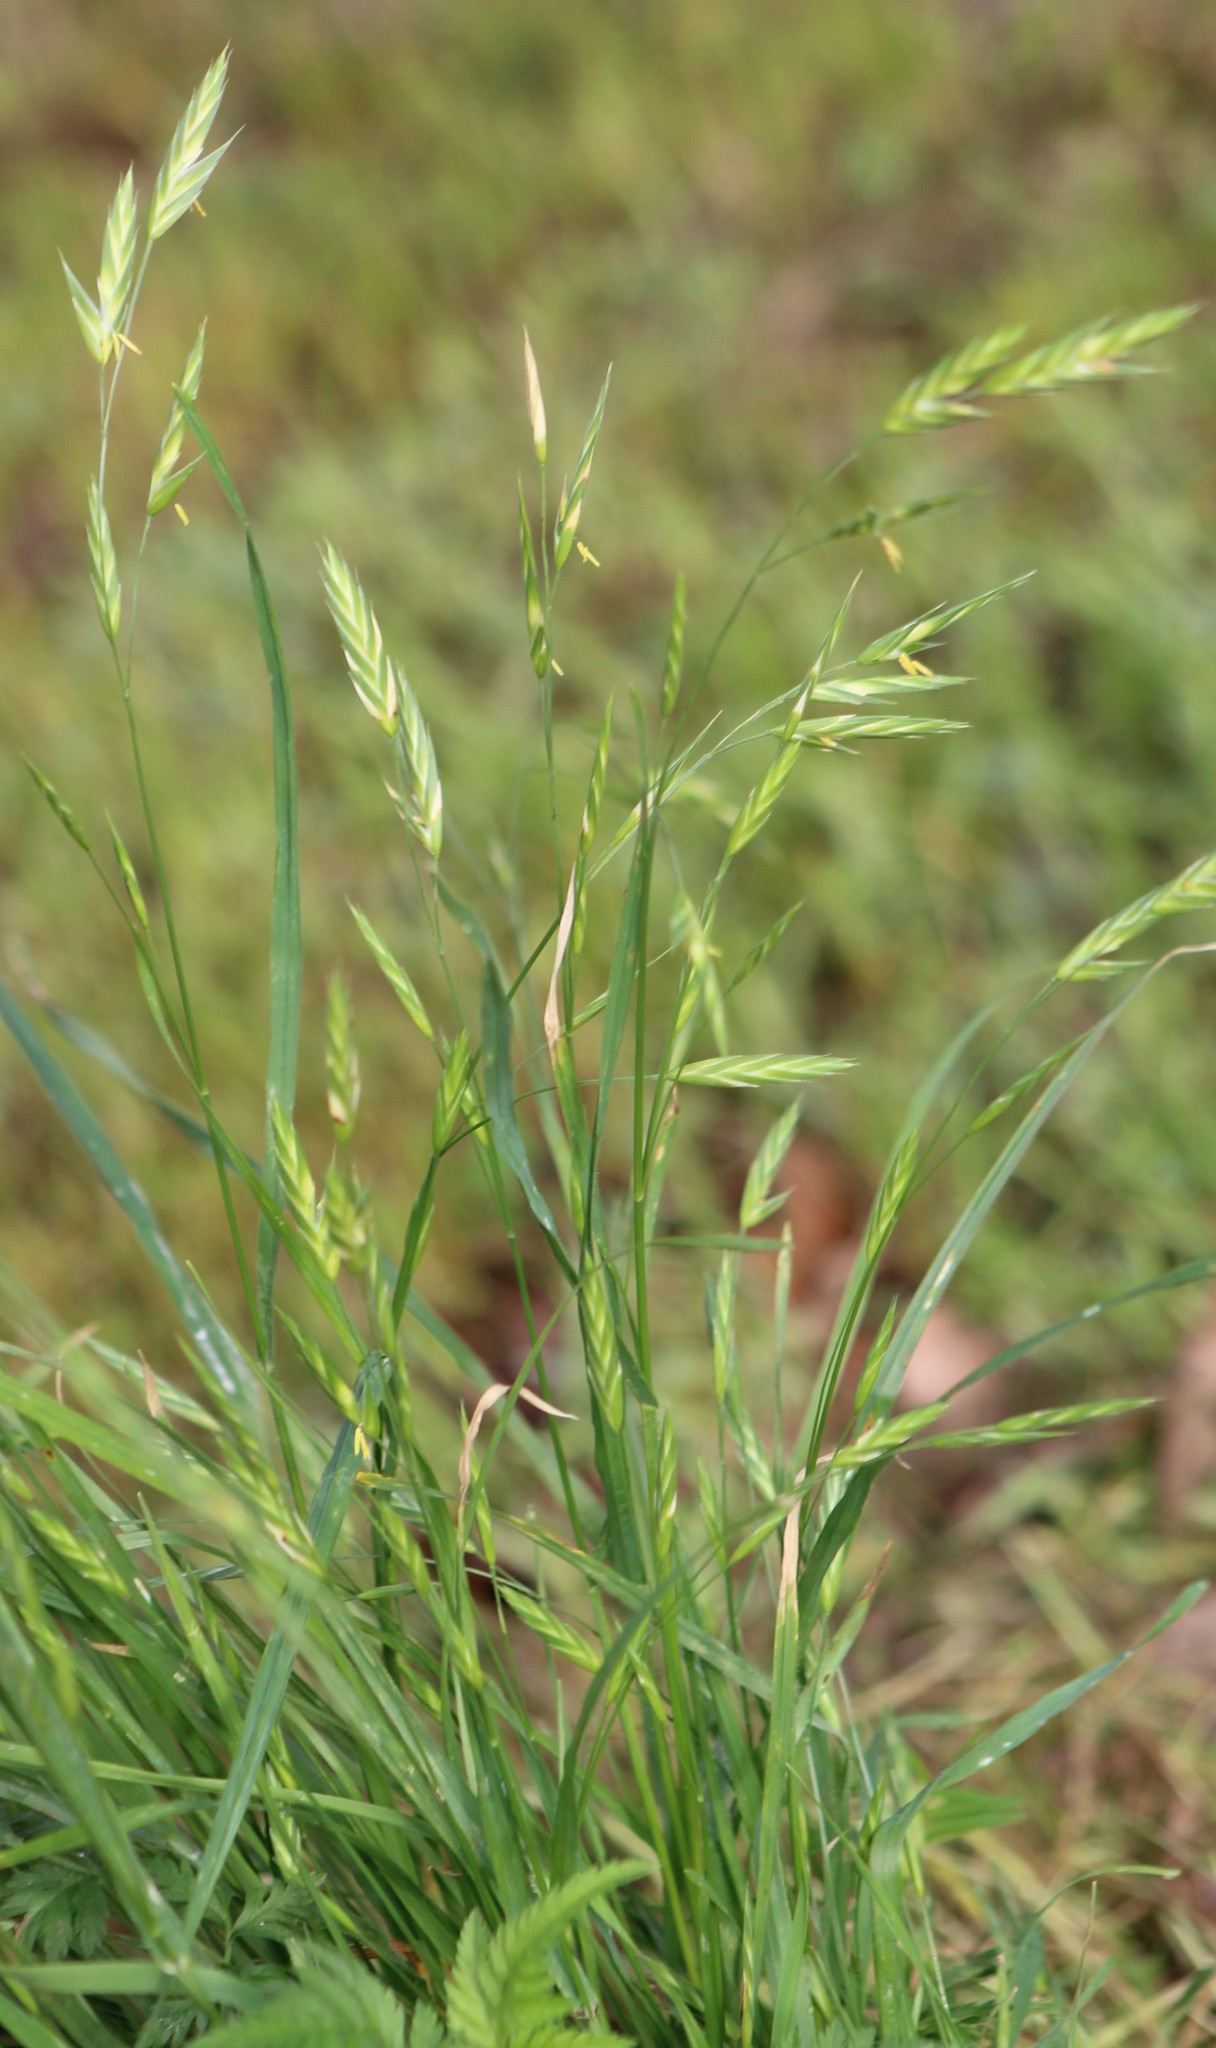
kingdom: Plantae
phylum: Tracheophyta
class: Liliopsida
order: Poales
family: Poaceae
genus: Bromus
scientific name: Bromus catharticus
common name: Rescuegrass
